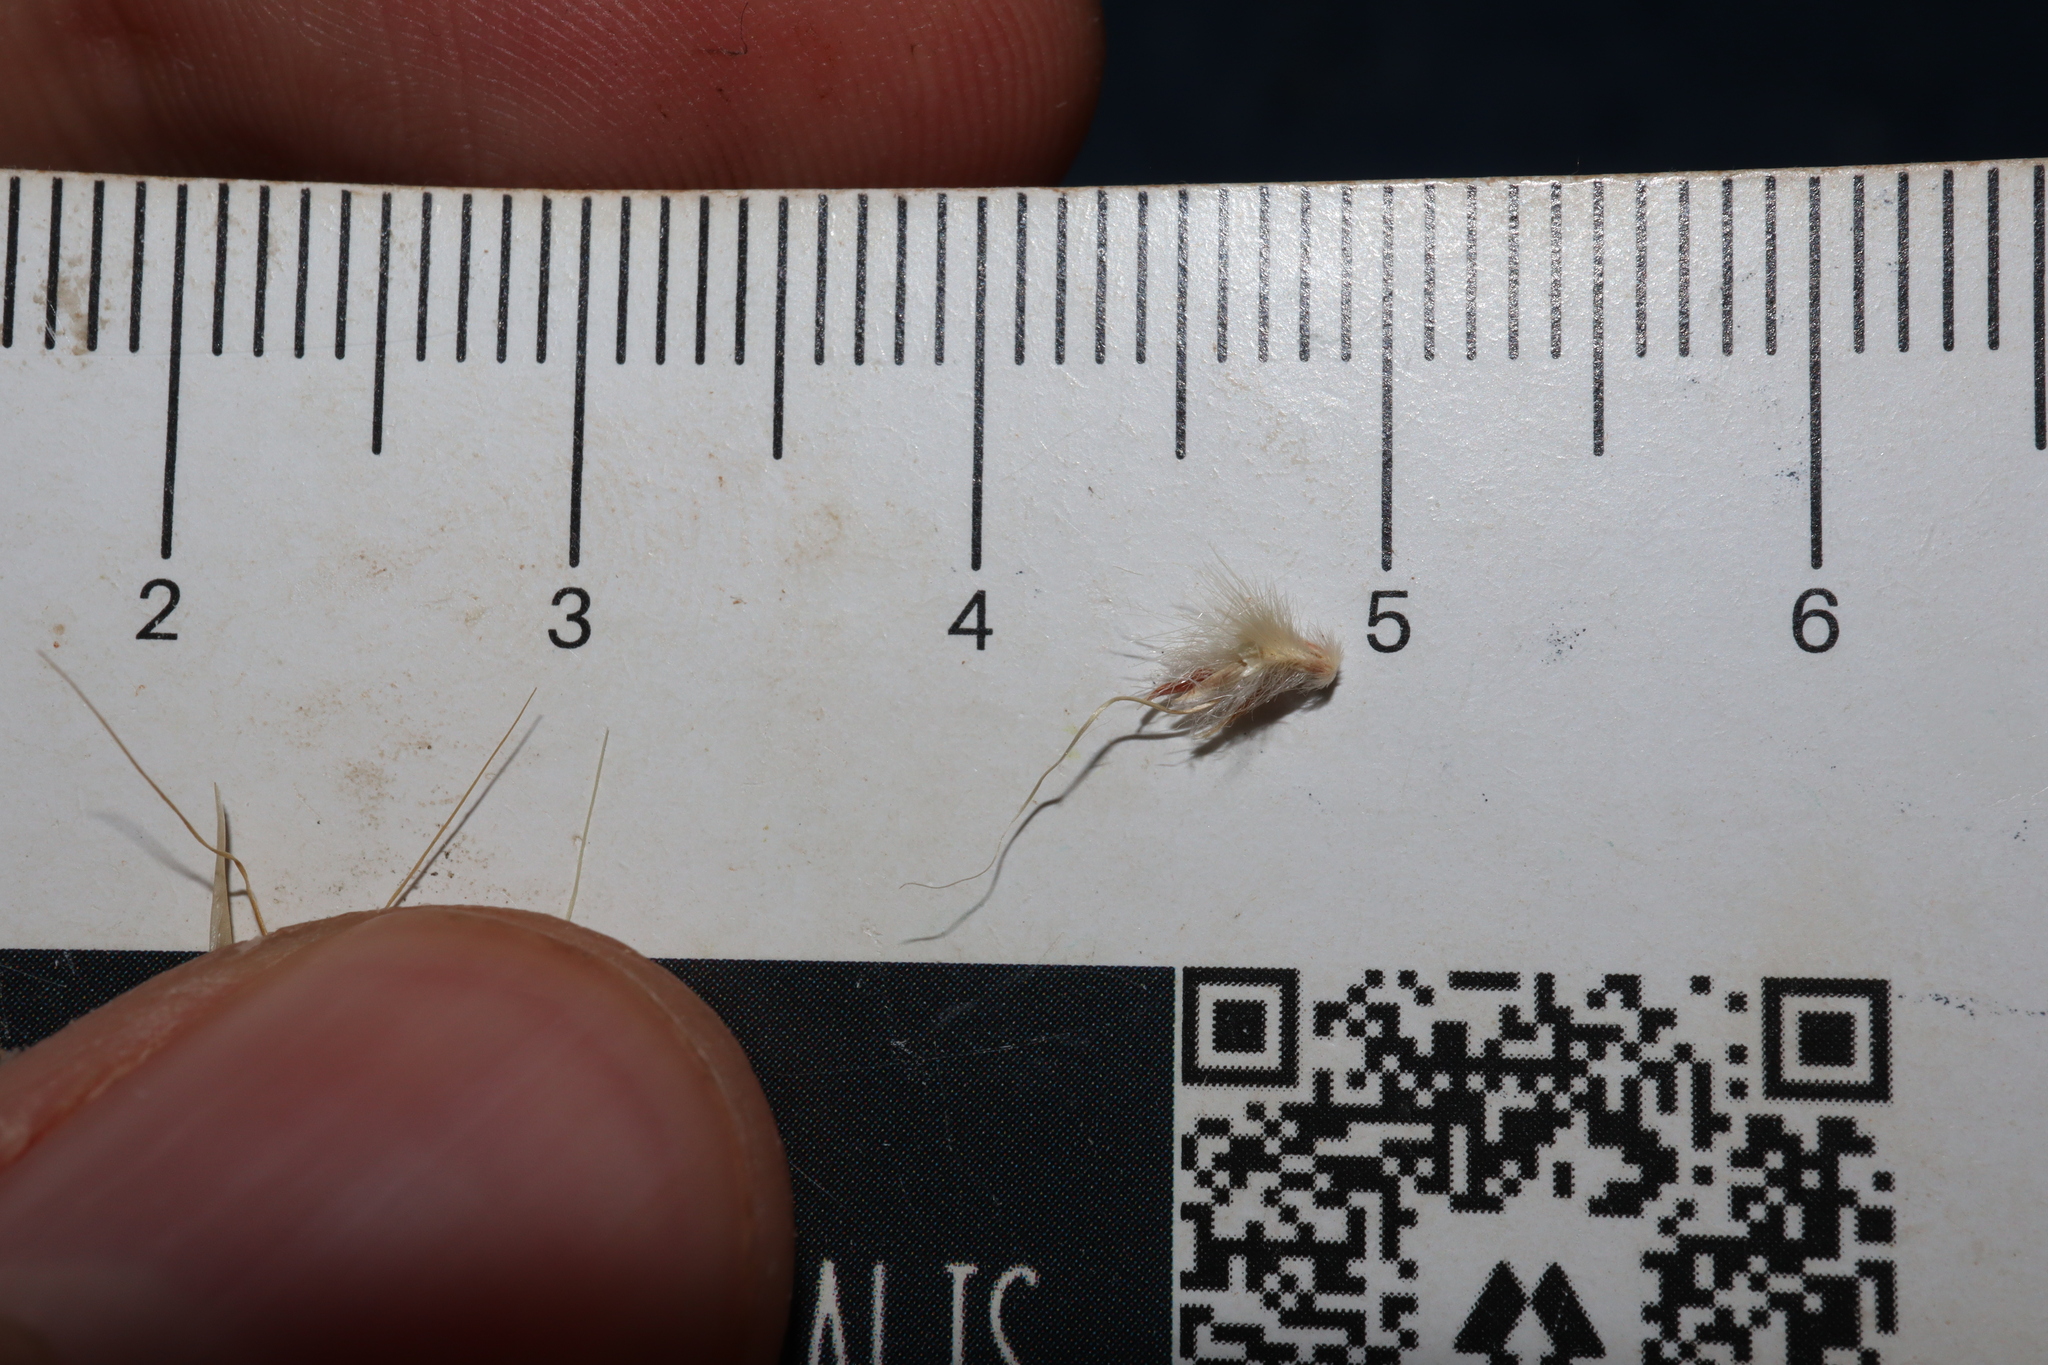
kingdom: Plantae
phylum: Tracheophyta
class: Liliopsida
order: Poales
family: Poaceae
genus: Cymbopogon
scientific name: Cymbopogon ambiguus
